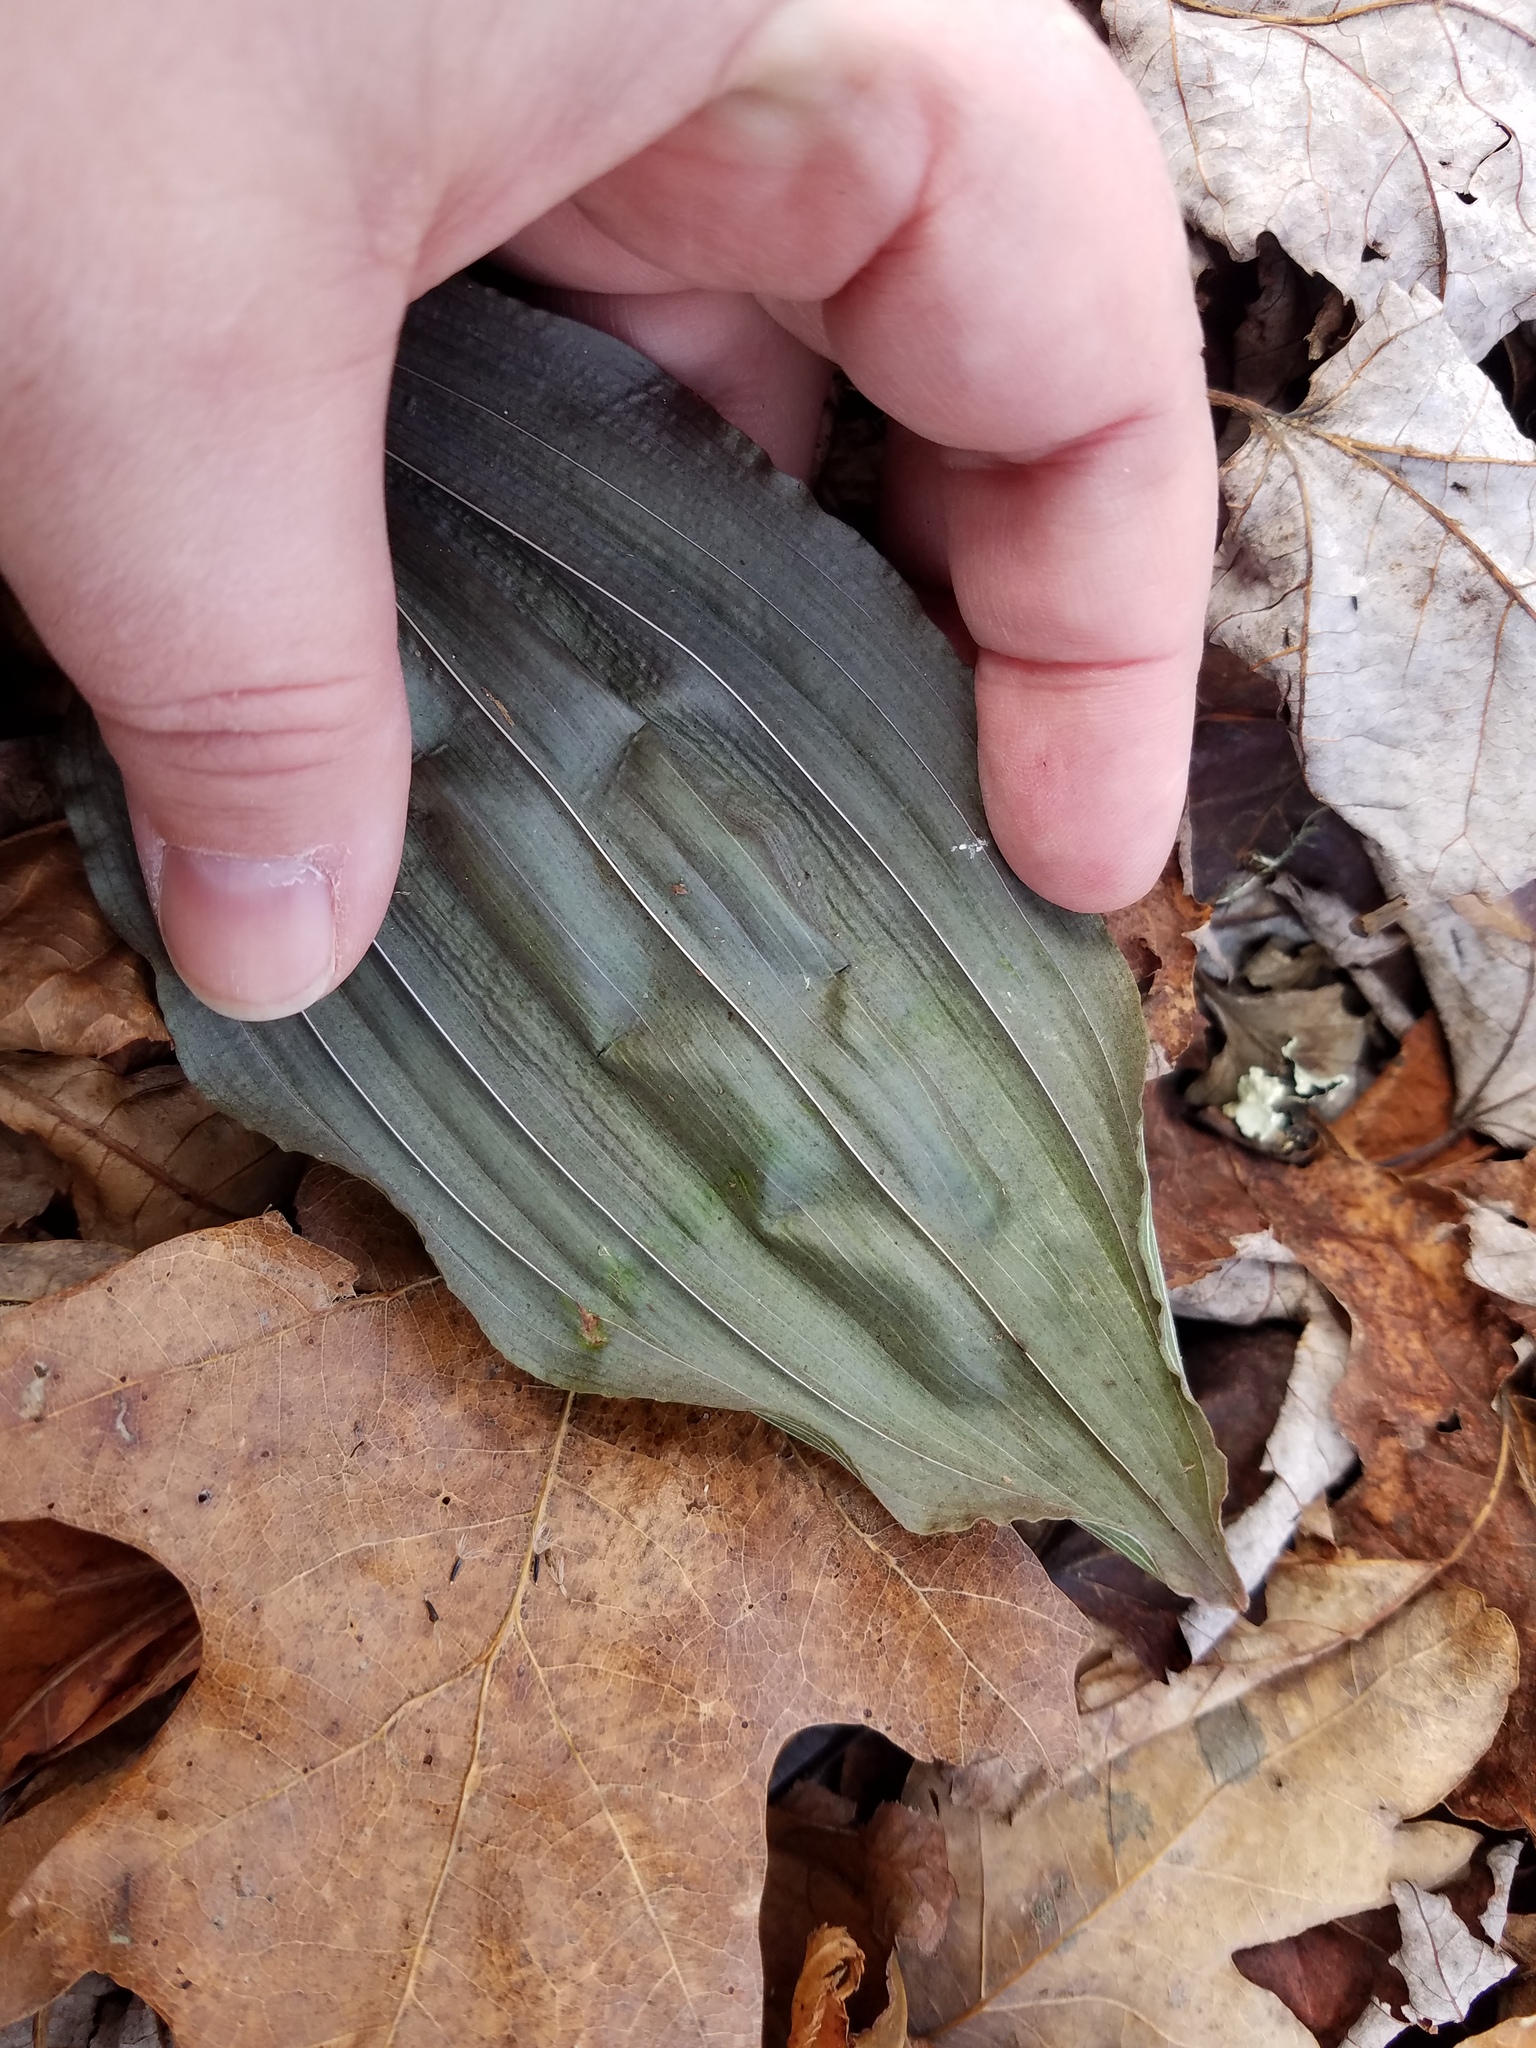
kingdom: Plantae
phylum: Tracheophyta
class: Liliopsida
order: Asparagales
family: Orchidaceae
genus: Aplectrum
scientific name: Aplectrum hyemale
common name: Adam-and-eve
